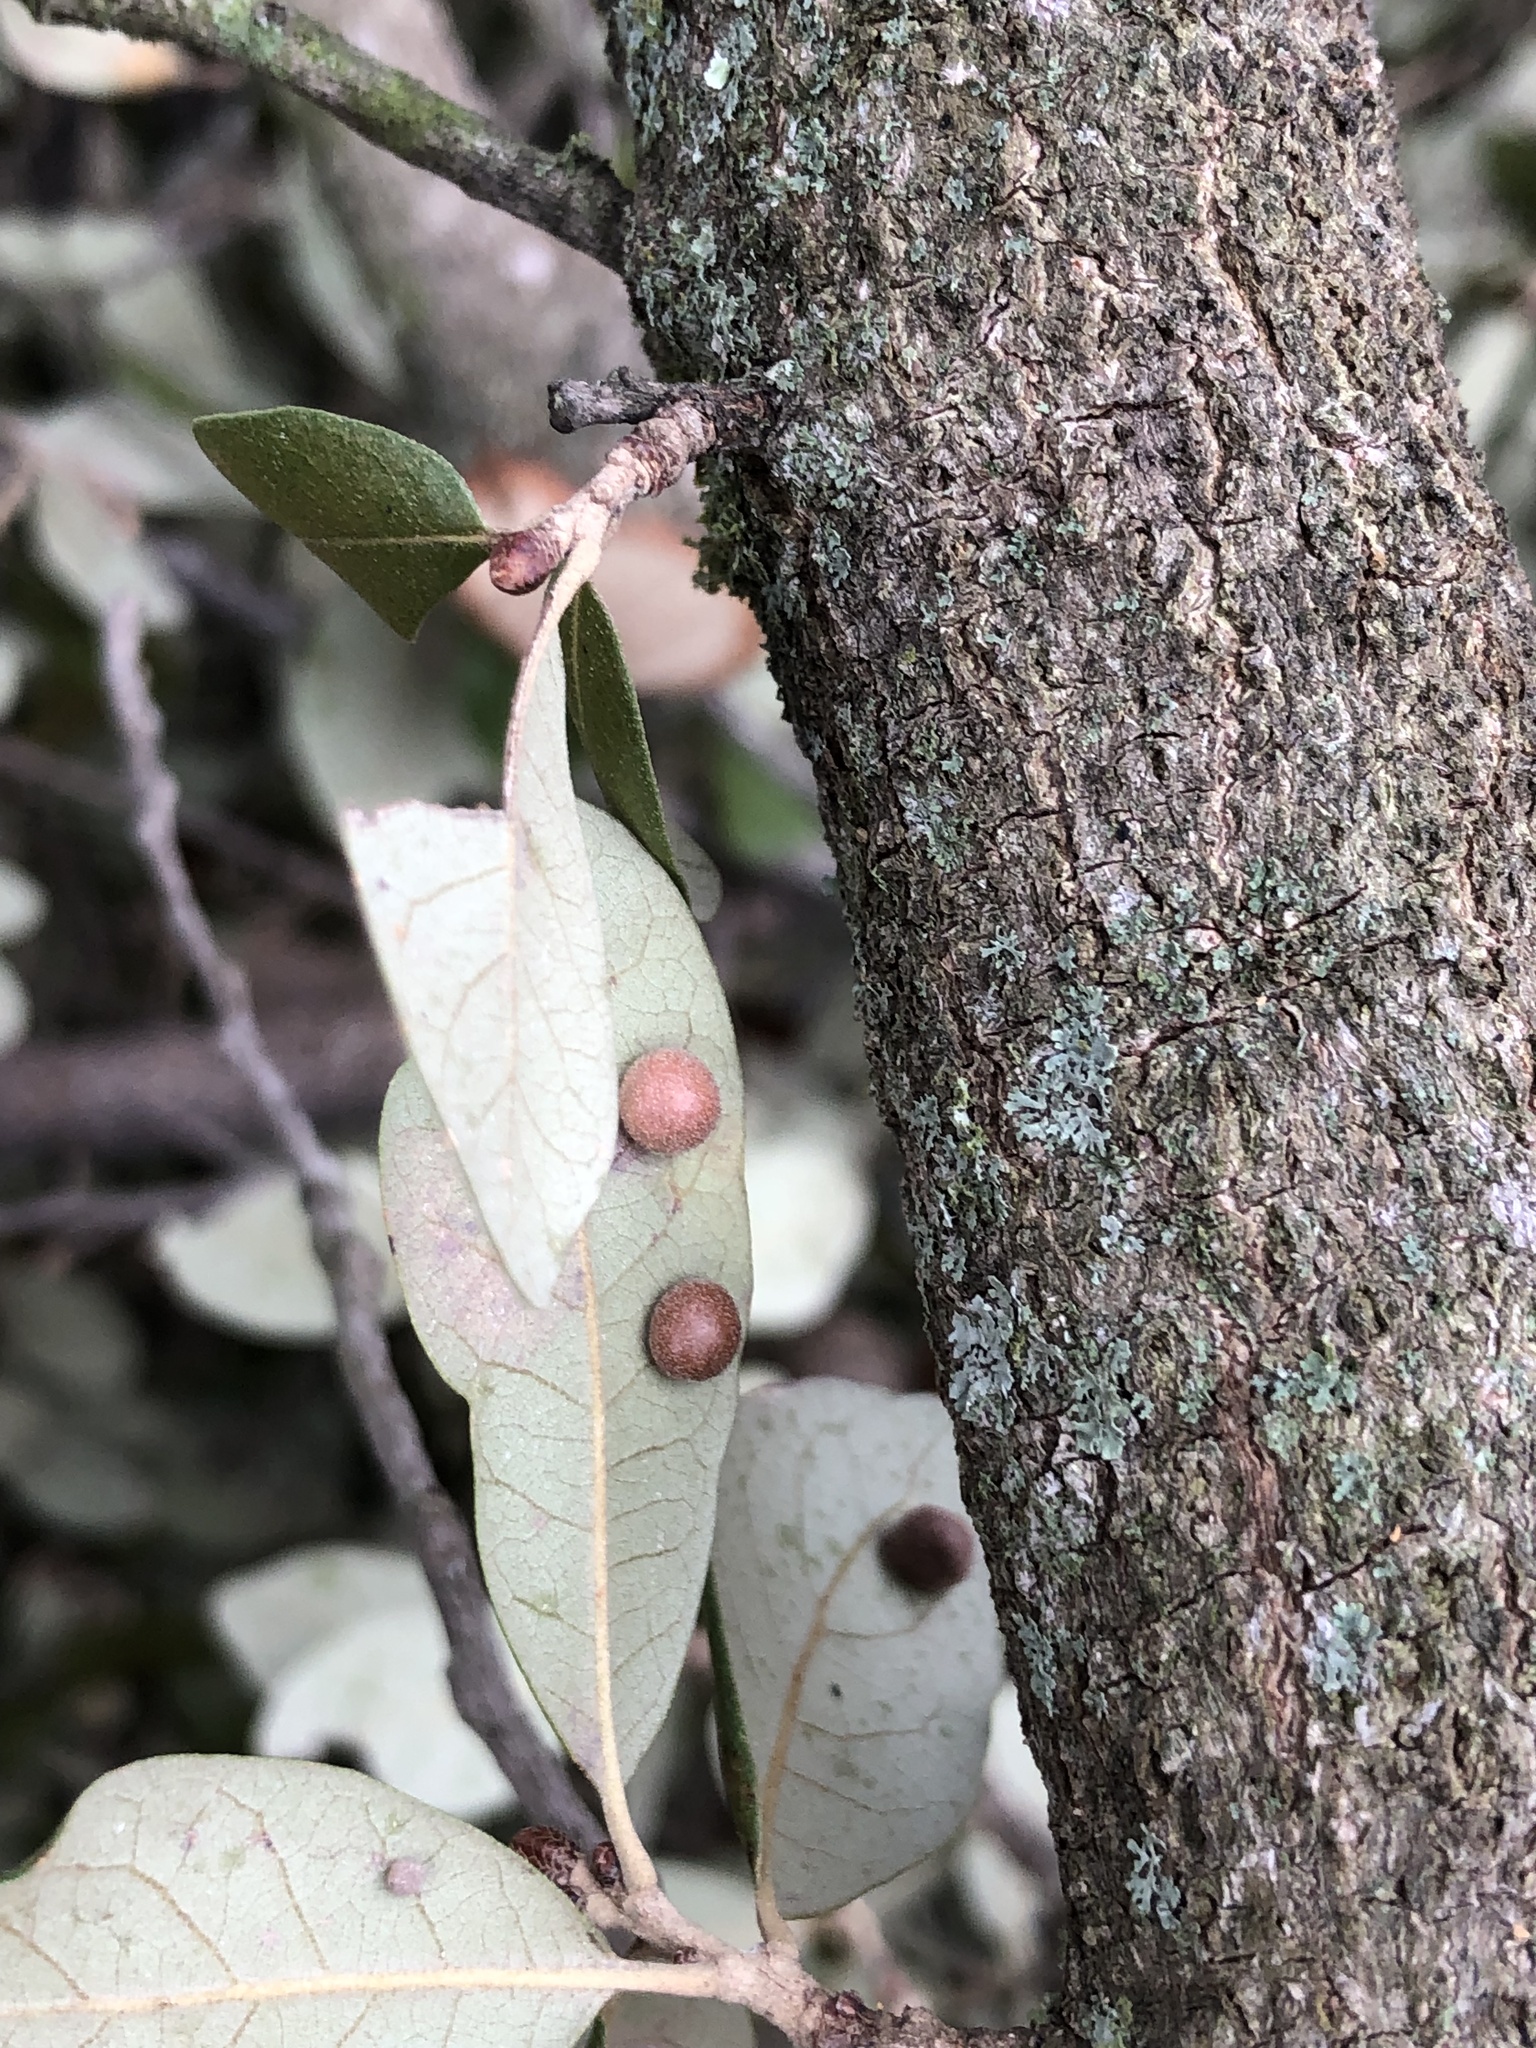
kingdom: Animalia
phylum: Arthropoda
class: Insecta
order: Hymenoptera
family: Cynipidae
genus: Belonocnema
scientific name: Belonocnema kinseyi
